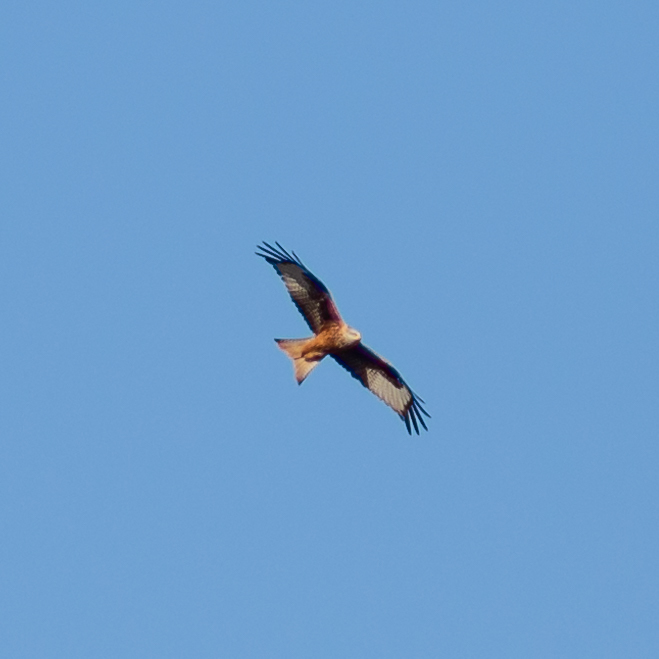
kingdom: Animalia
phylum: Chordata
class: Aves
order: Accipitriformes
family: Accipitridae
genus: Milvus
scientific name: Milvus milvus
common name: Red kite
